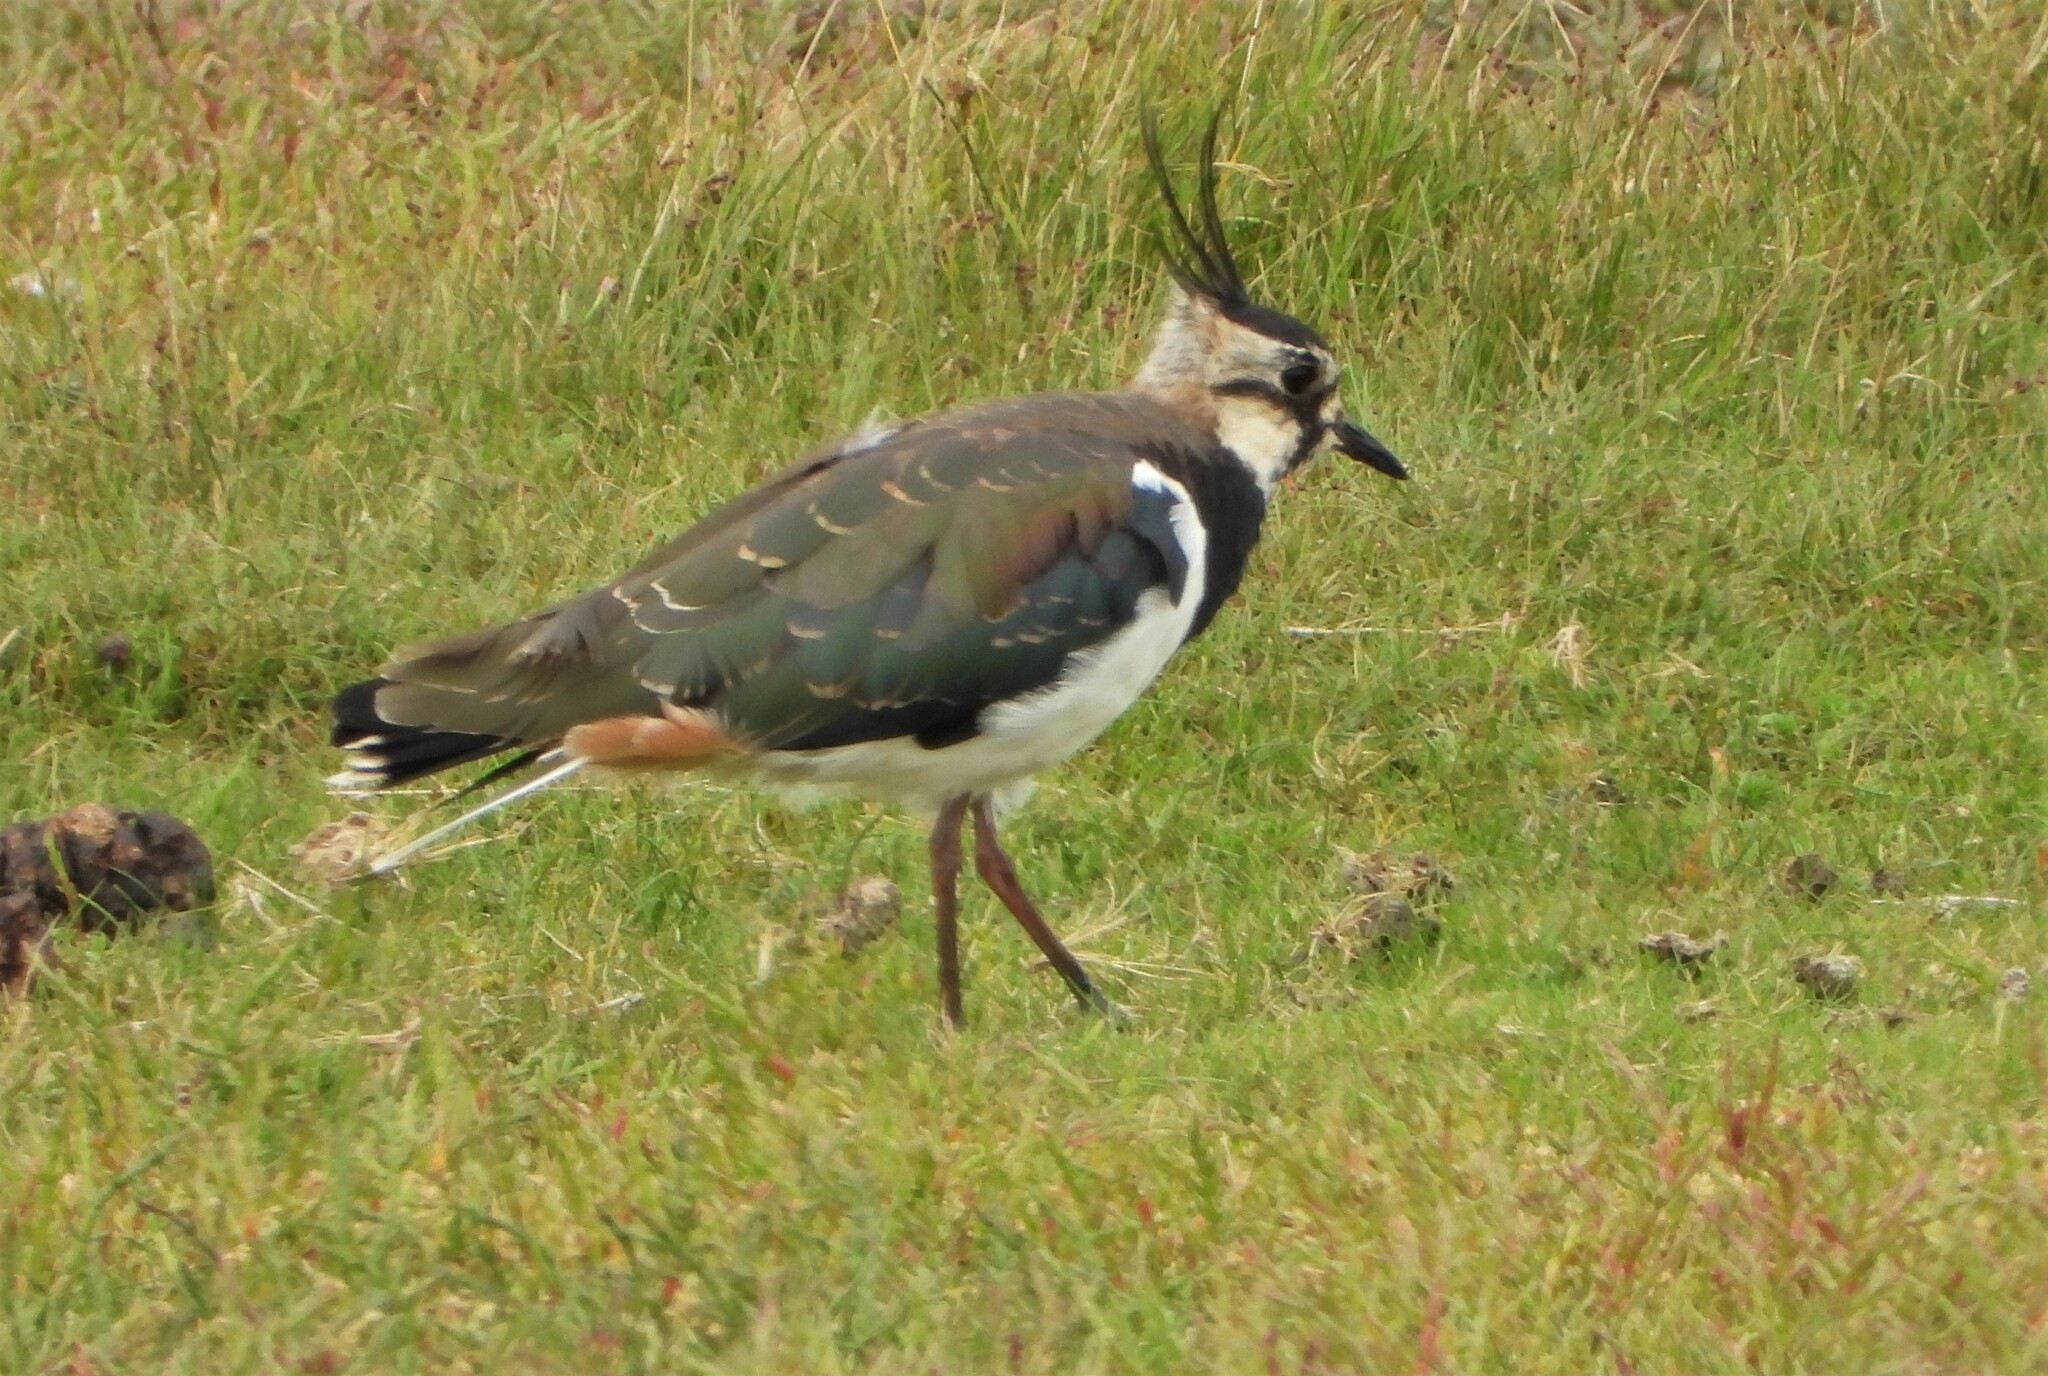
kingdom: Animalia
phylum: Chordata
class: Aves
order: Charadriiformes
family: Charadriidae
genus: Vanellus
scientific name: Vanellus vanellus
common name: Northern lapwing
